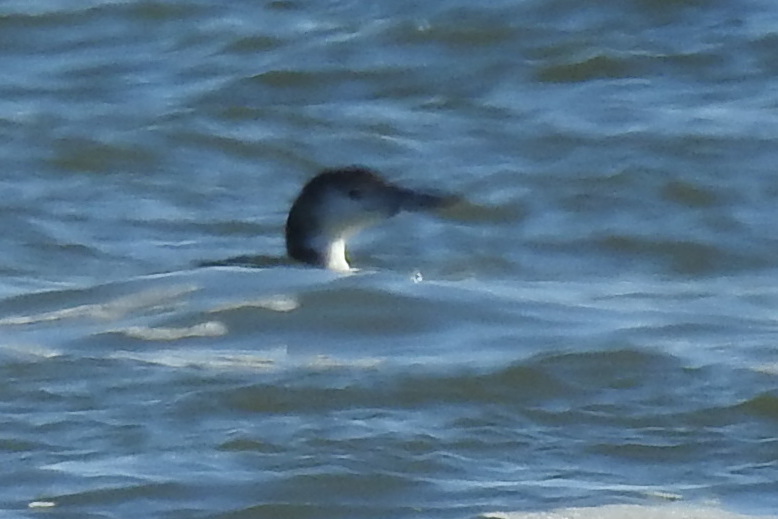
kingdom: Animalia
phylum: Chordata
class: Aves
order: Gaviiformes
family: Gaviidae
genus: Gavia
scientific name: Gavia immer
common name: Common loon
